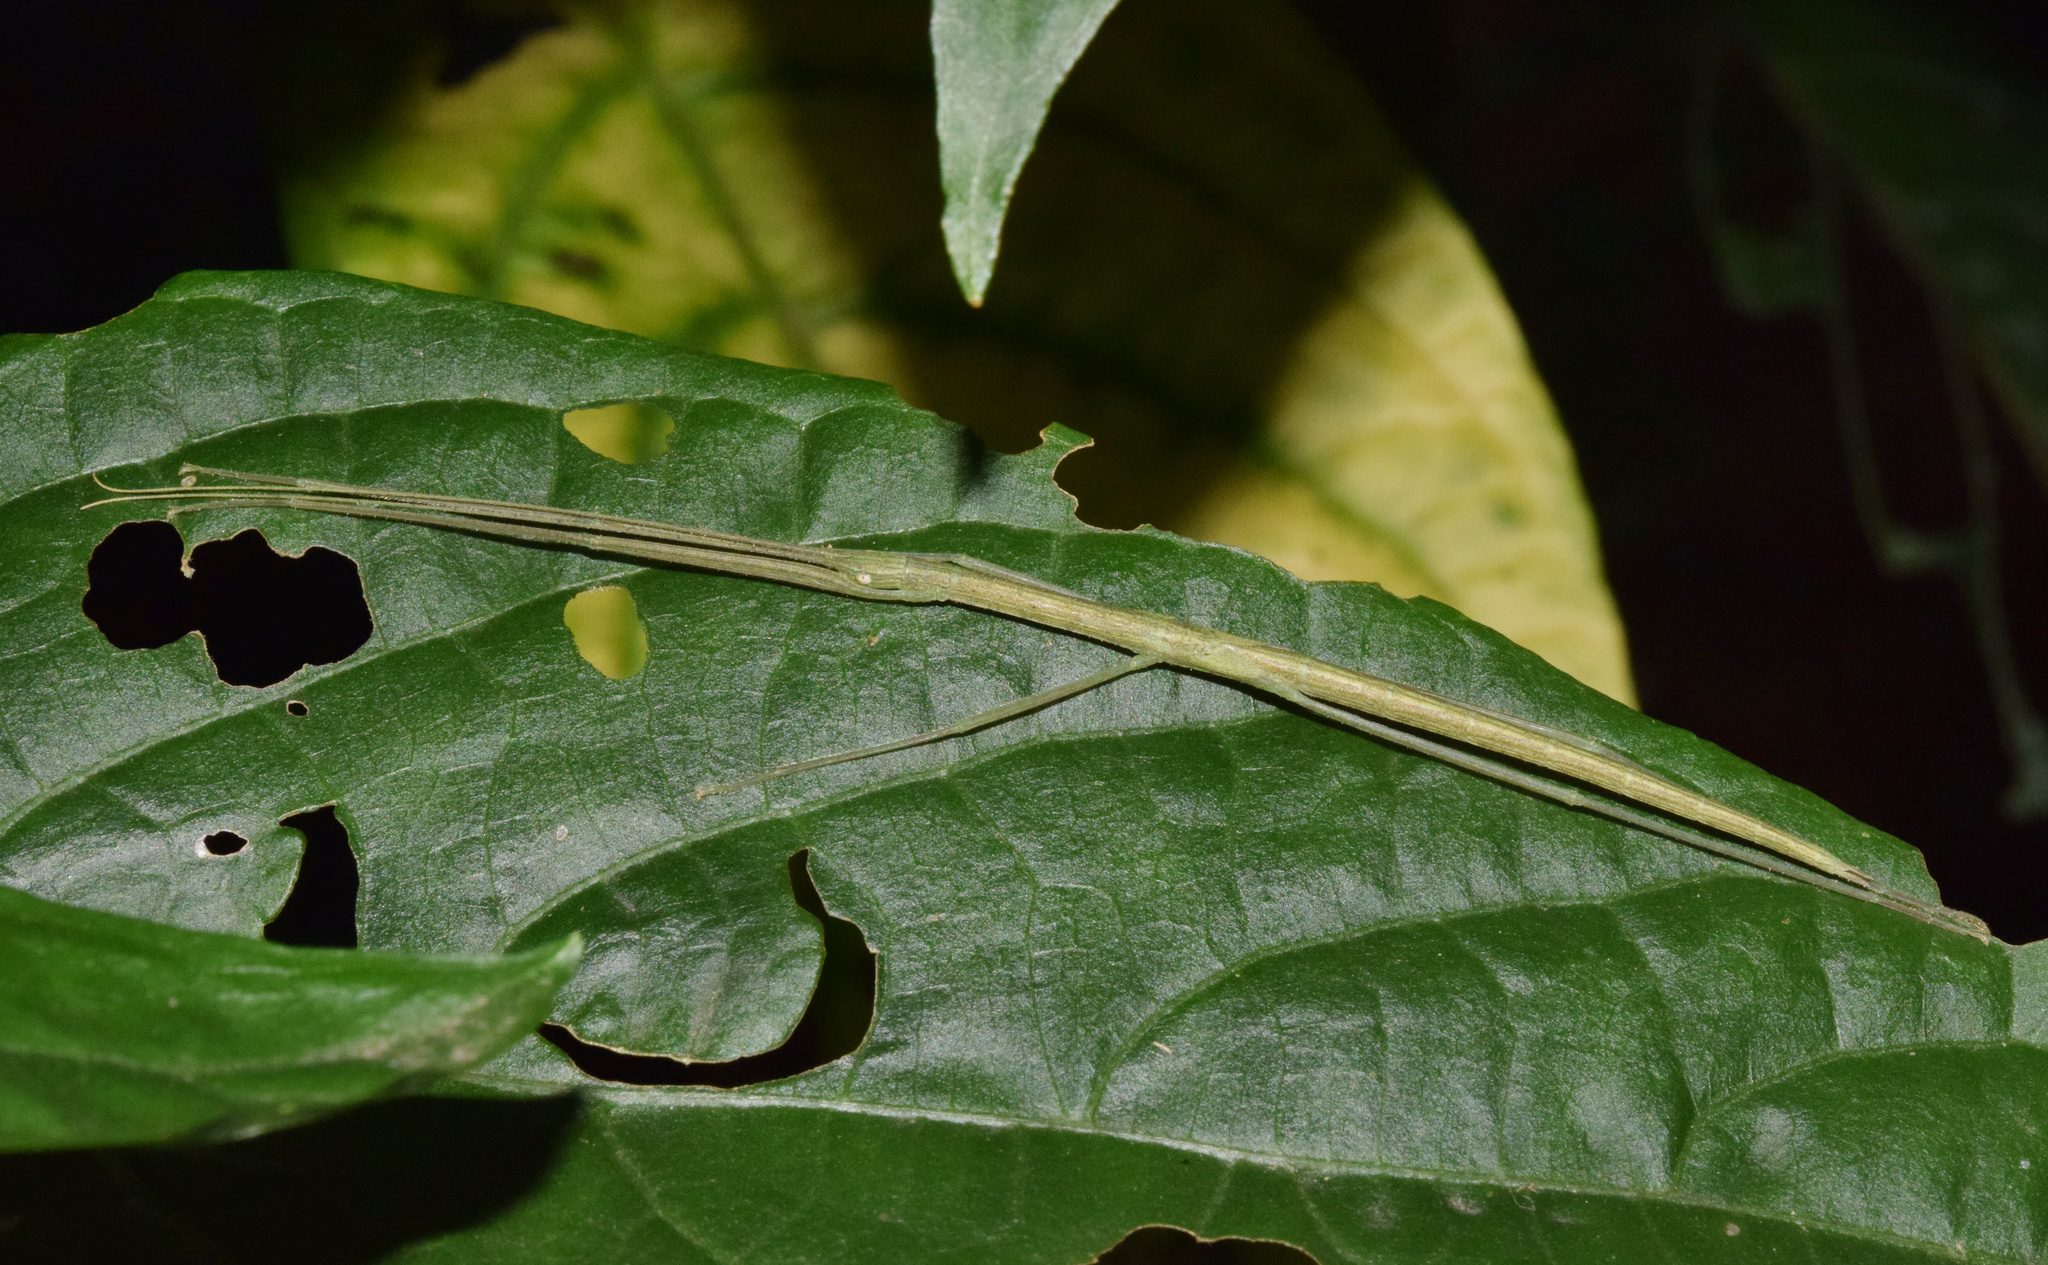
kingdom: Animalia
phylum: Arthropoda
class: Insecta
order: Phasmida
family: Lonchodidae
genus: Sipyloidea
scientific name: Sipyloidea sipylus
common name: Madagascan stick insect
